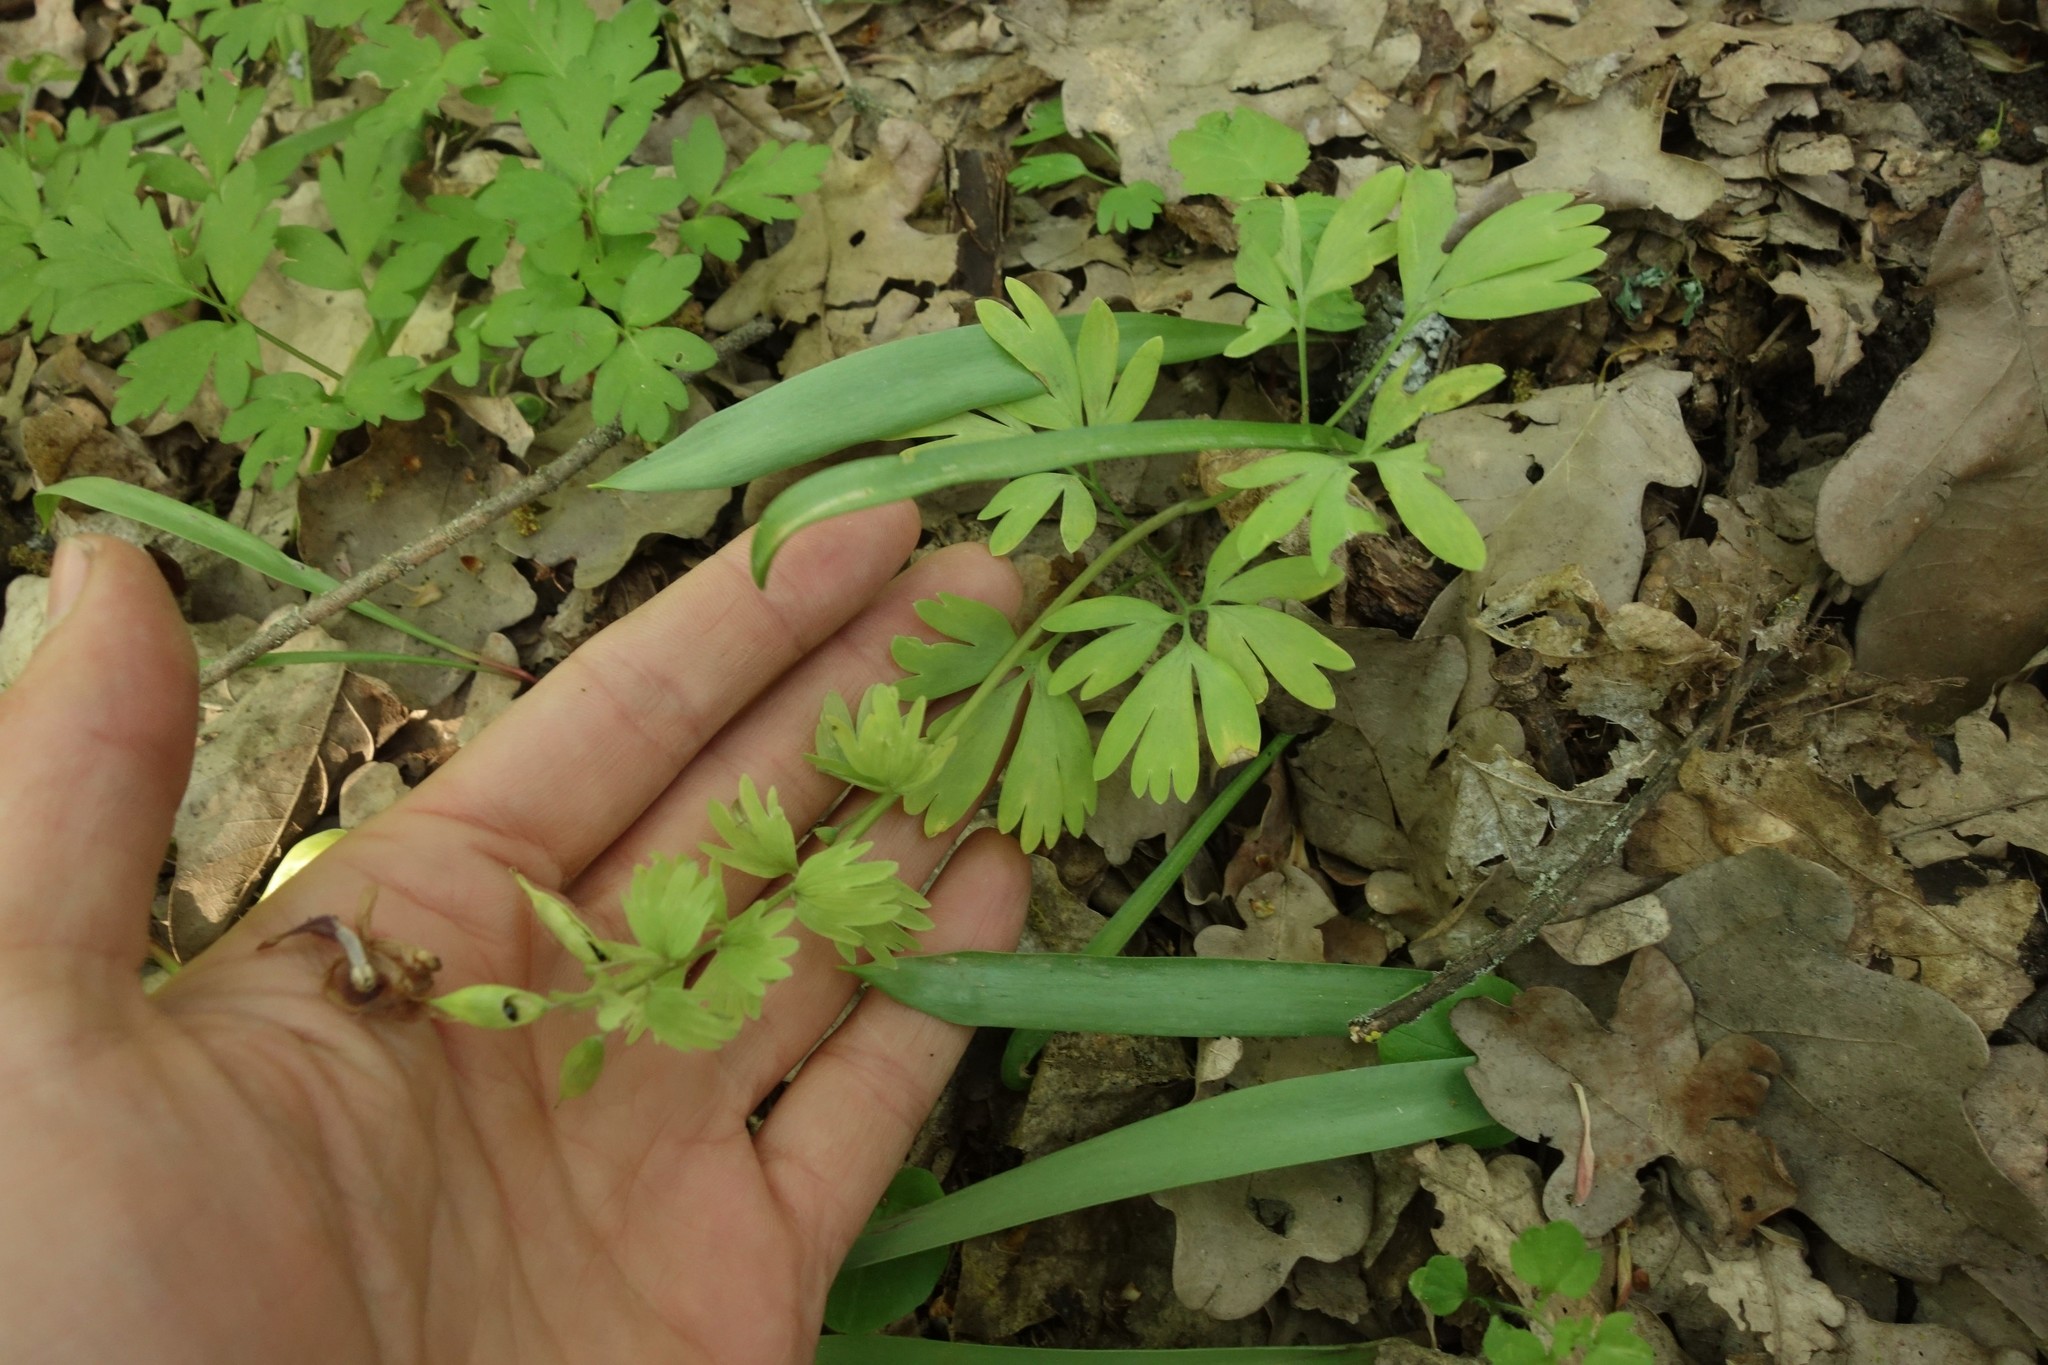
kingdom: Plantae
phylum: Tracheophyta
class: Magnoliopsida
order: Ranunculales
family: Papaveraceae
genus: Corydalis
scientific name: Corydalis solida
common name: Bird-in-a-bush
